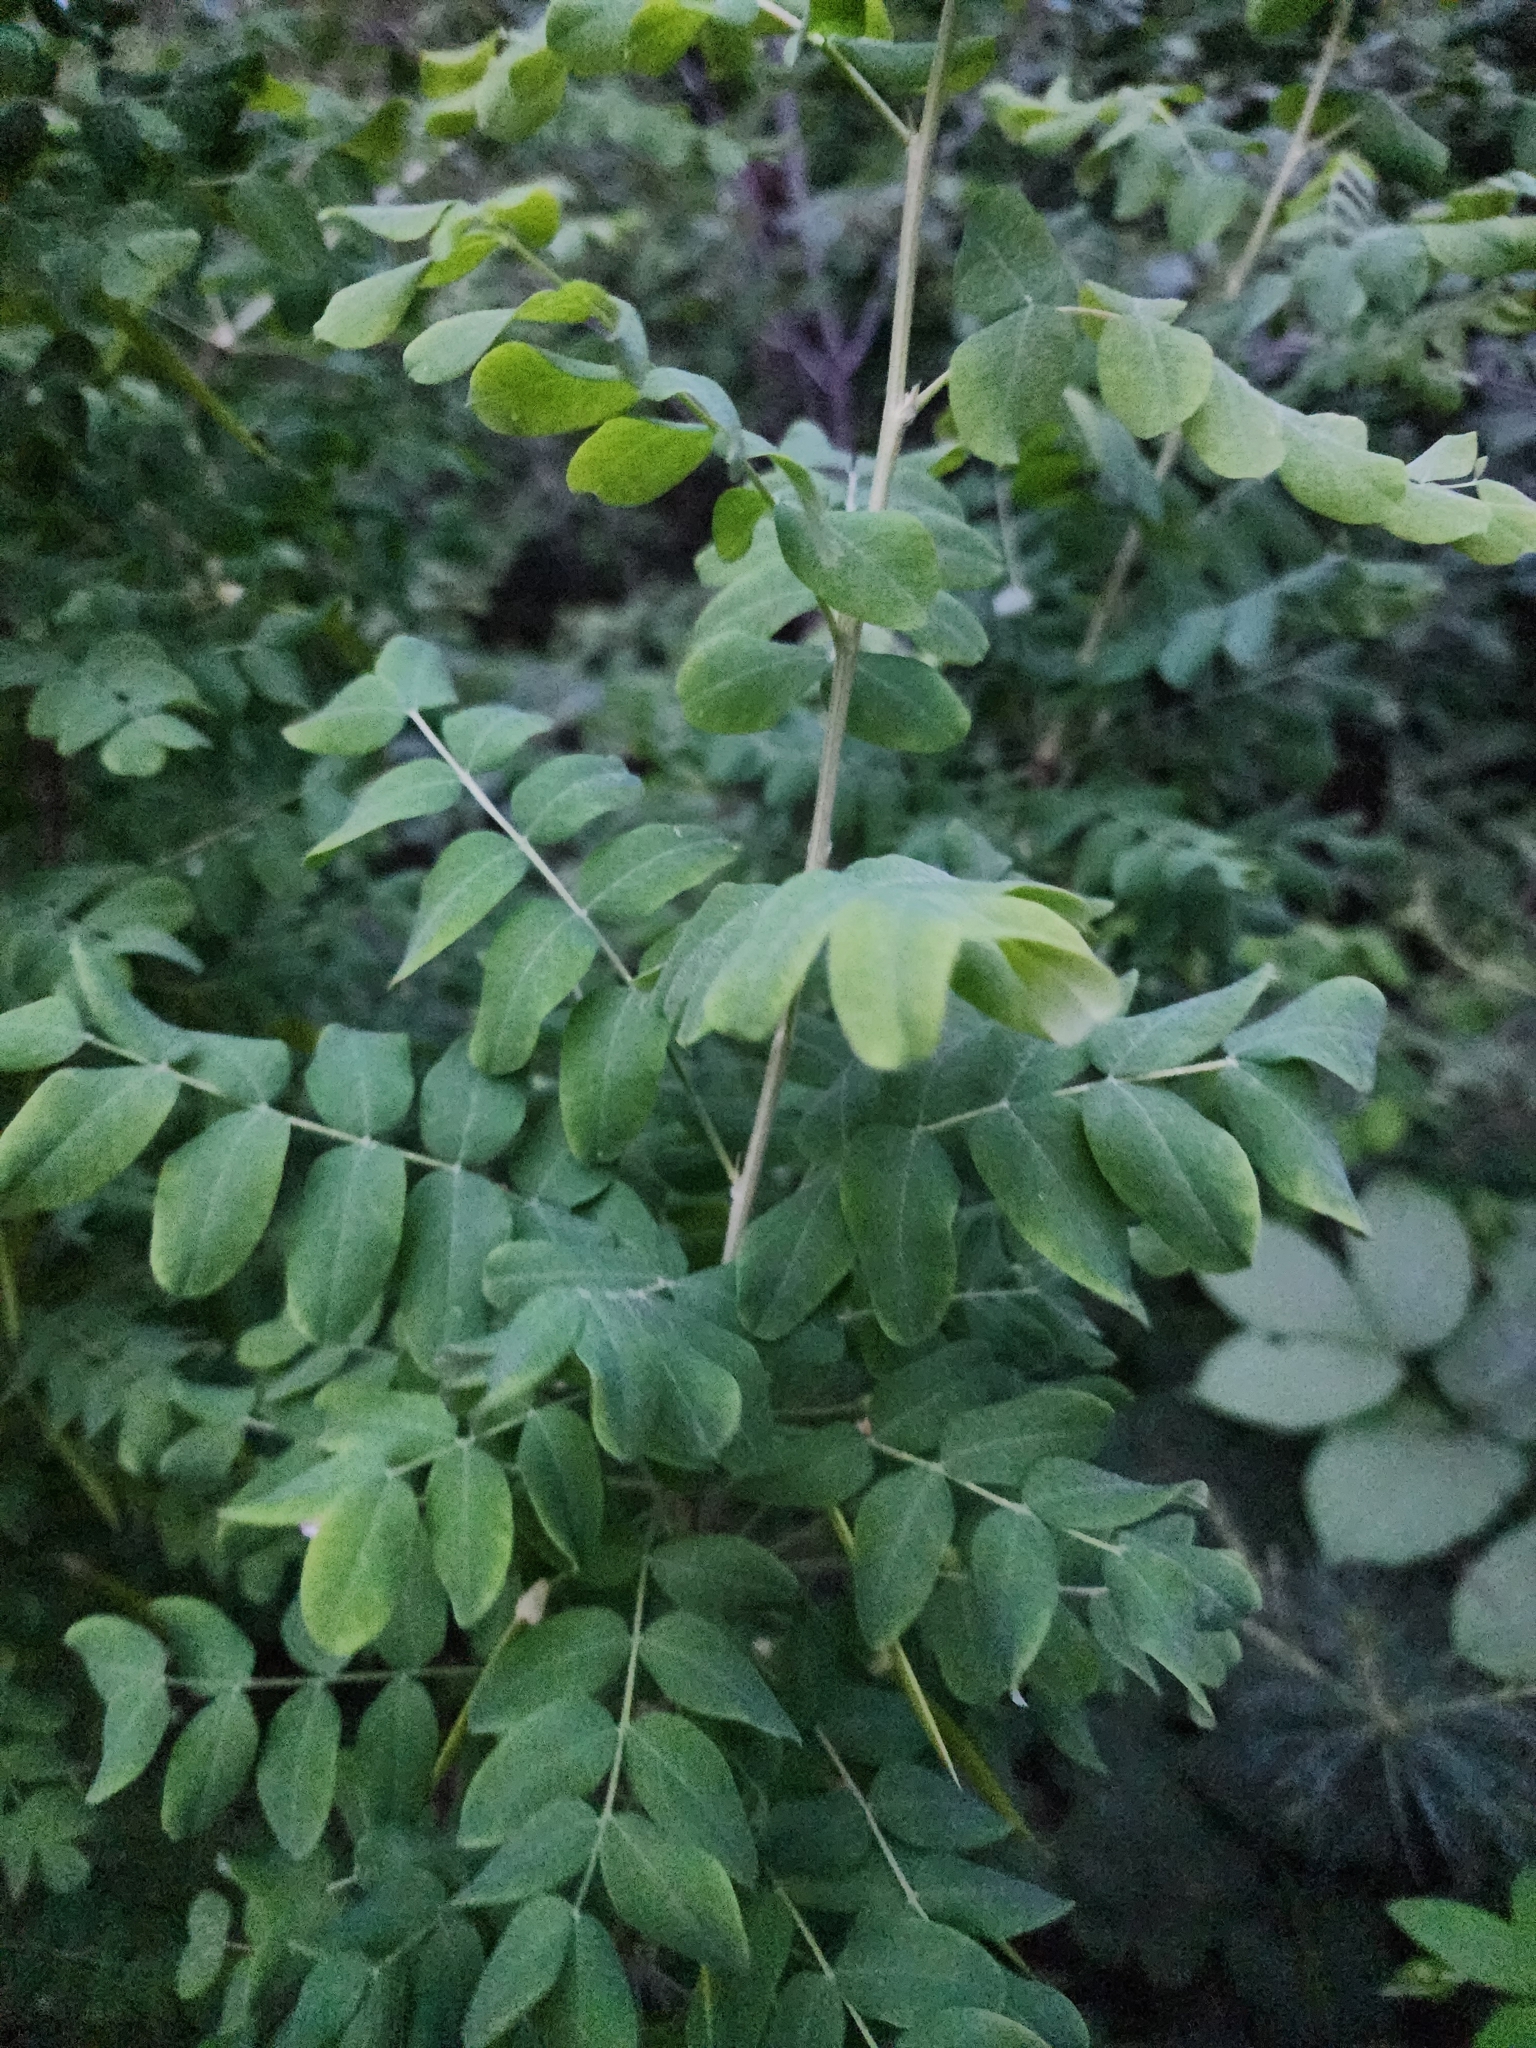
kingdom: Plantae
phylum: Tracheophyta
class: Magnoliopsida
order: Fabales
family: Fabaceae
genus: Caragana
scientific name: Caragana arborescens
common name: Siberian peashrub
